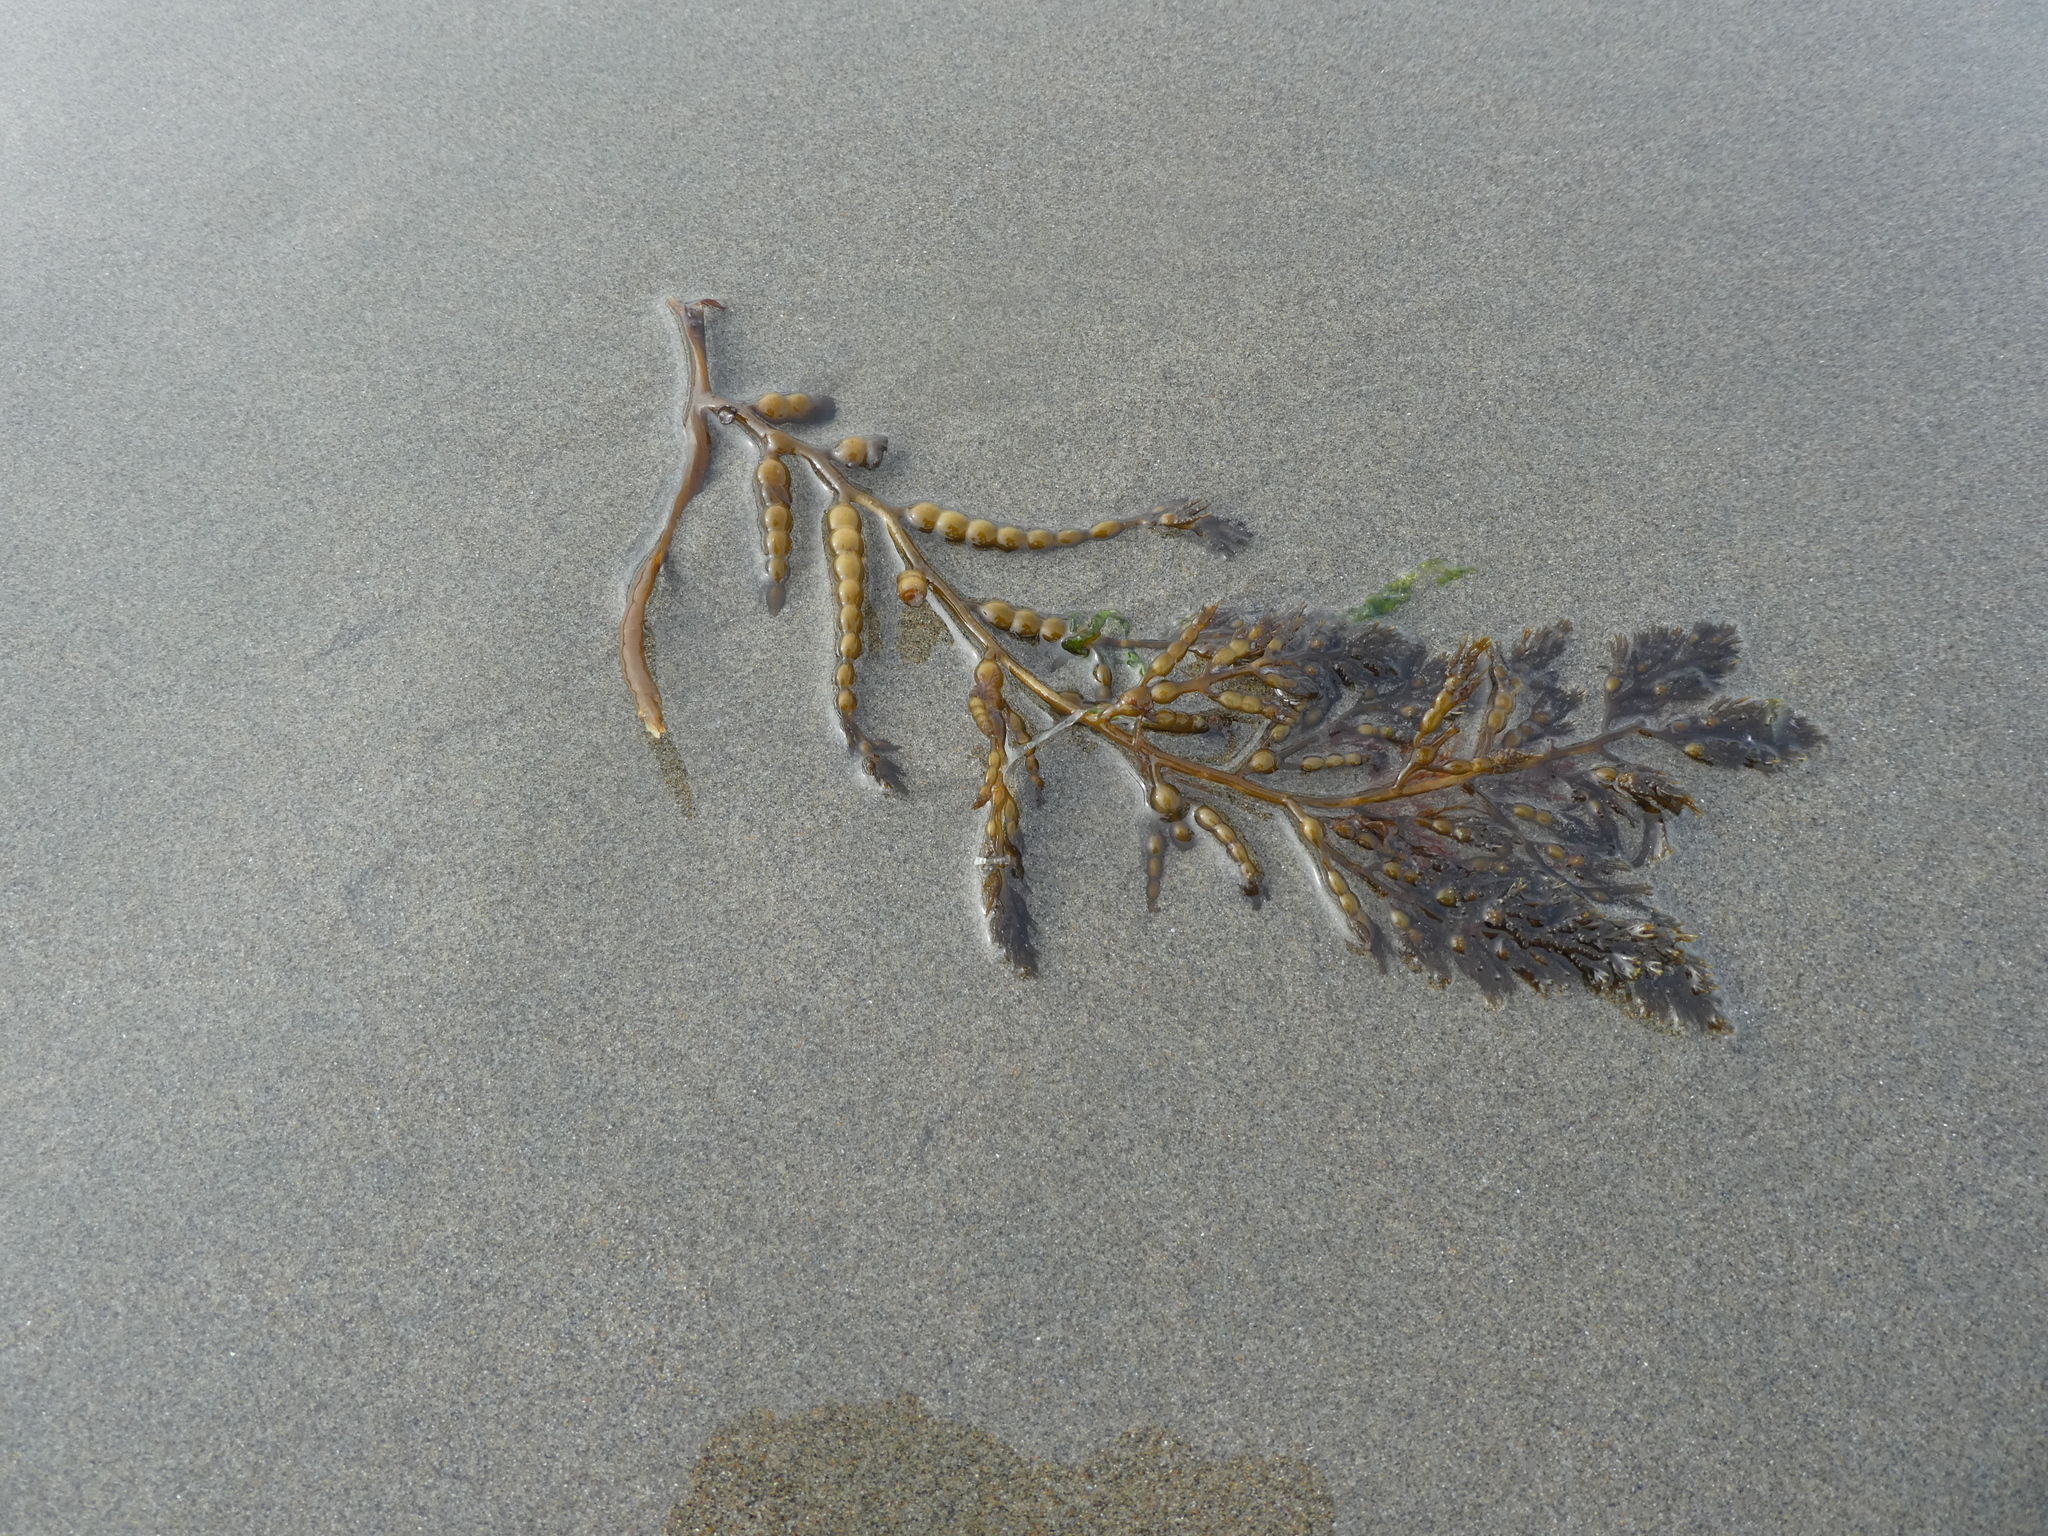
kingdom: Chromista
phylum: Ochrophyta
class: Phaeophyceae
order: Fucales
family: Sargassaceae
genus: Stephanocystis
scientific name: Stephanocystis
